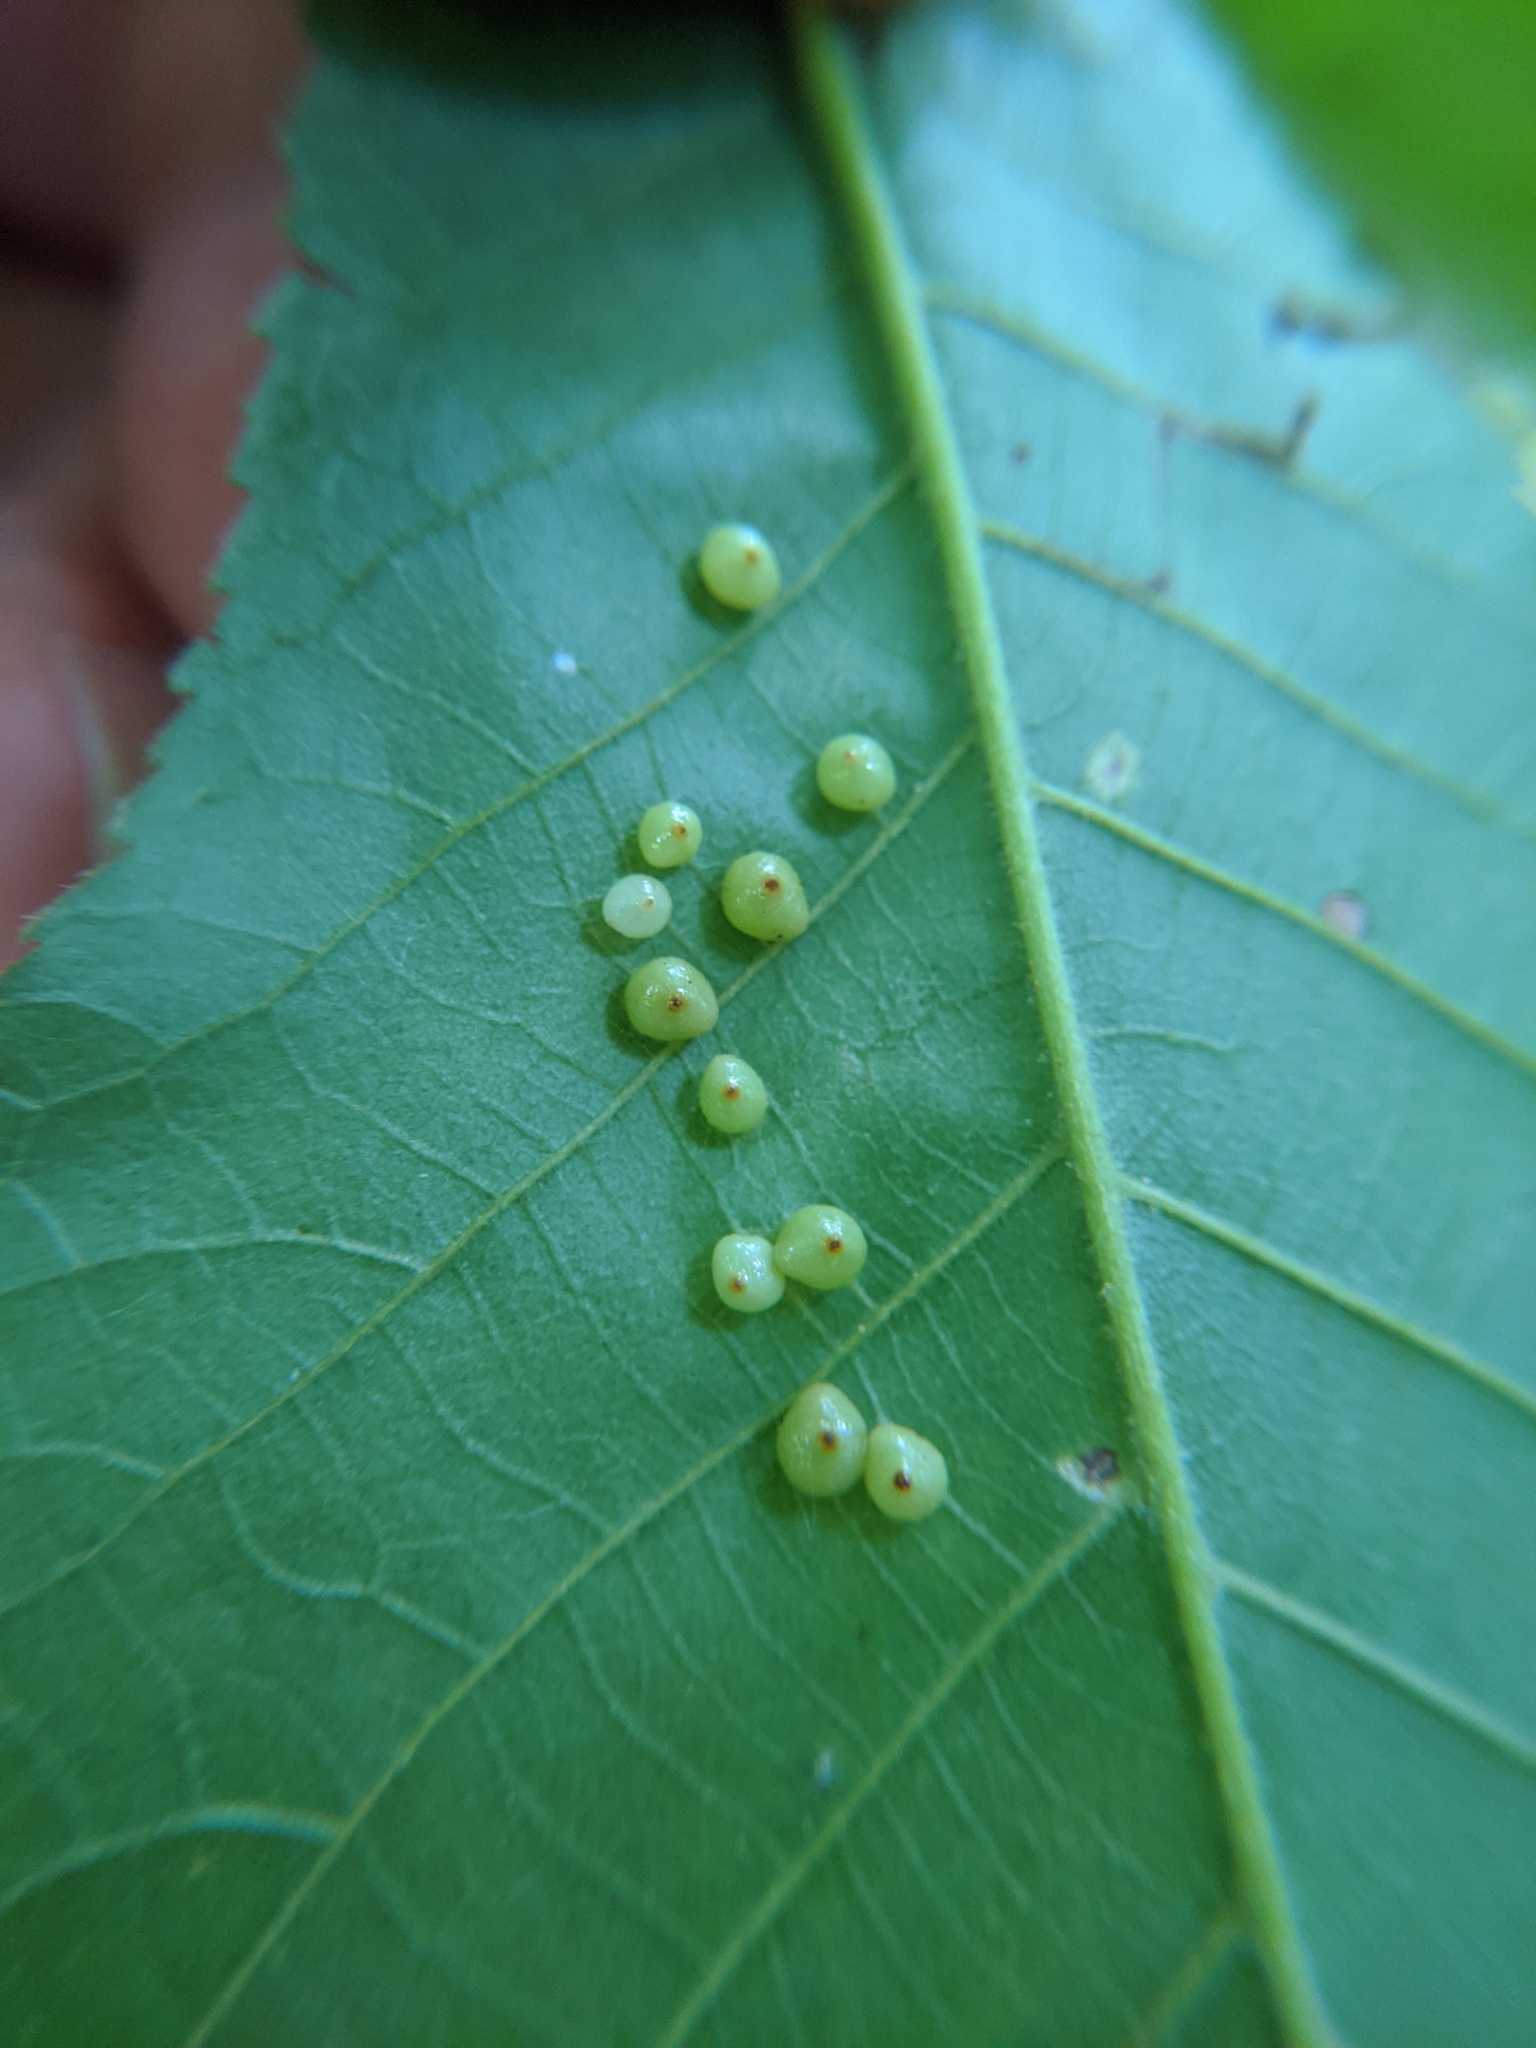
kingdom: Animalia
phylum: Arthropoda
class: Insecta
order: Diptera
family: Cecidomyiidae
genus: Caryomyia
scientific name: Caryomyia caryae
